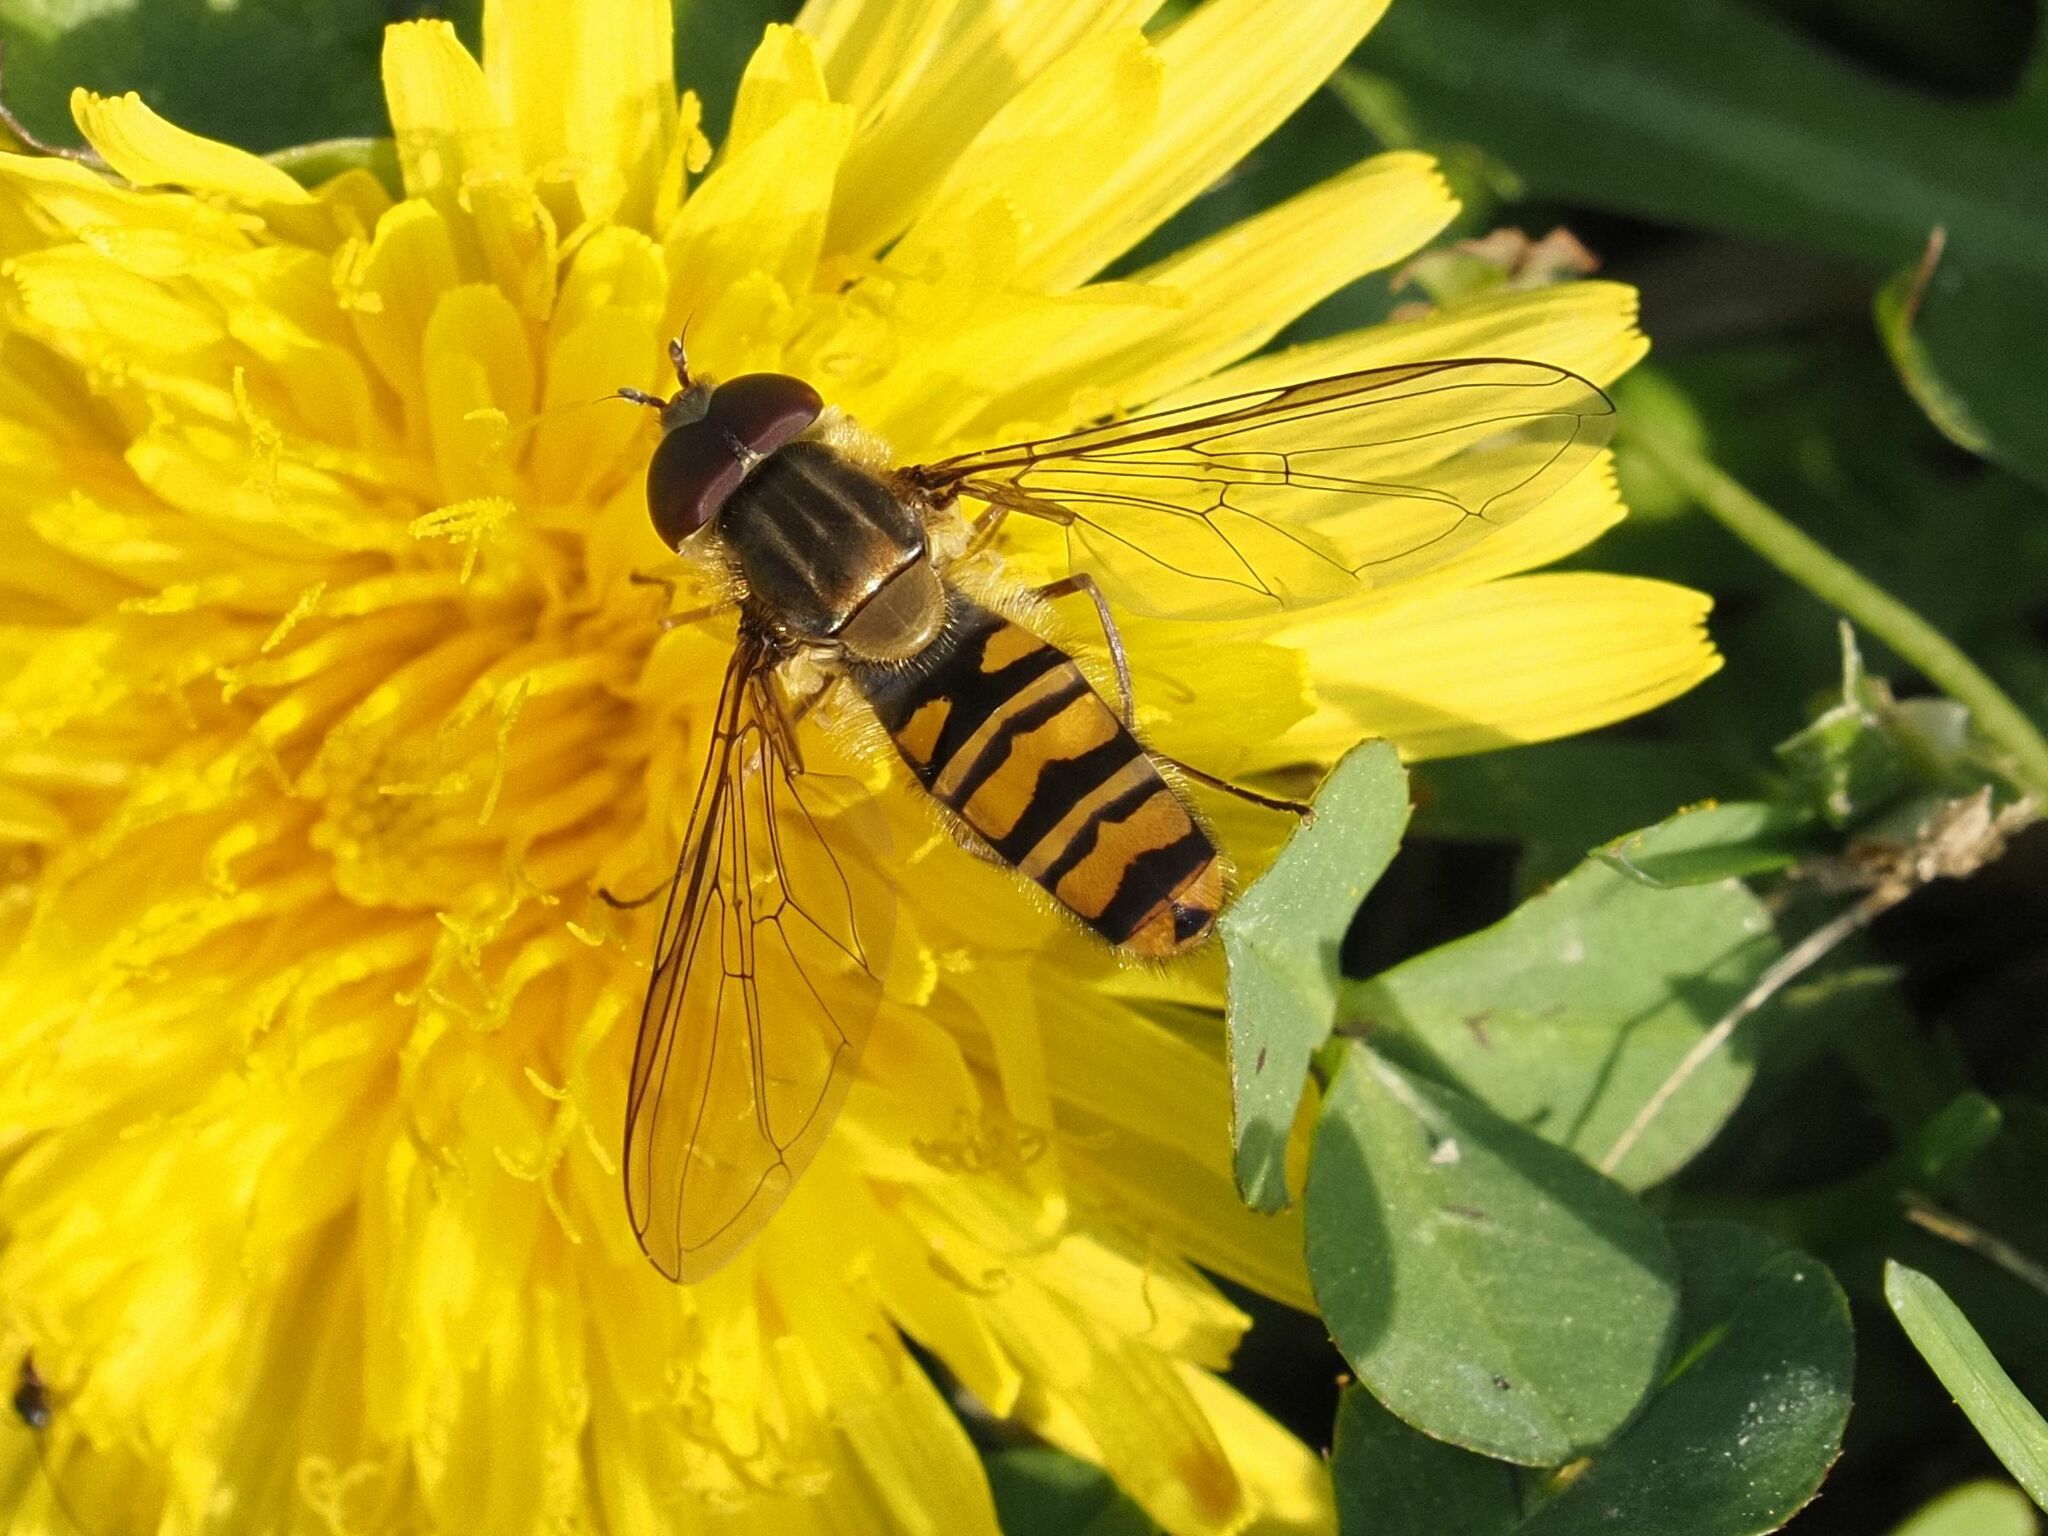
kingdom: Animalia
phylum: Arthropoda
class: Insecta
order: Diptera
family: Syrphidae
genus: Episyrphus
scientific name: Episyrphus balteatus
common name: Marmalade hoverfly
